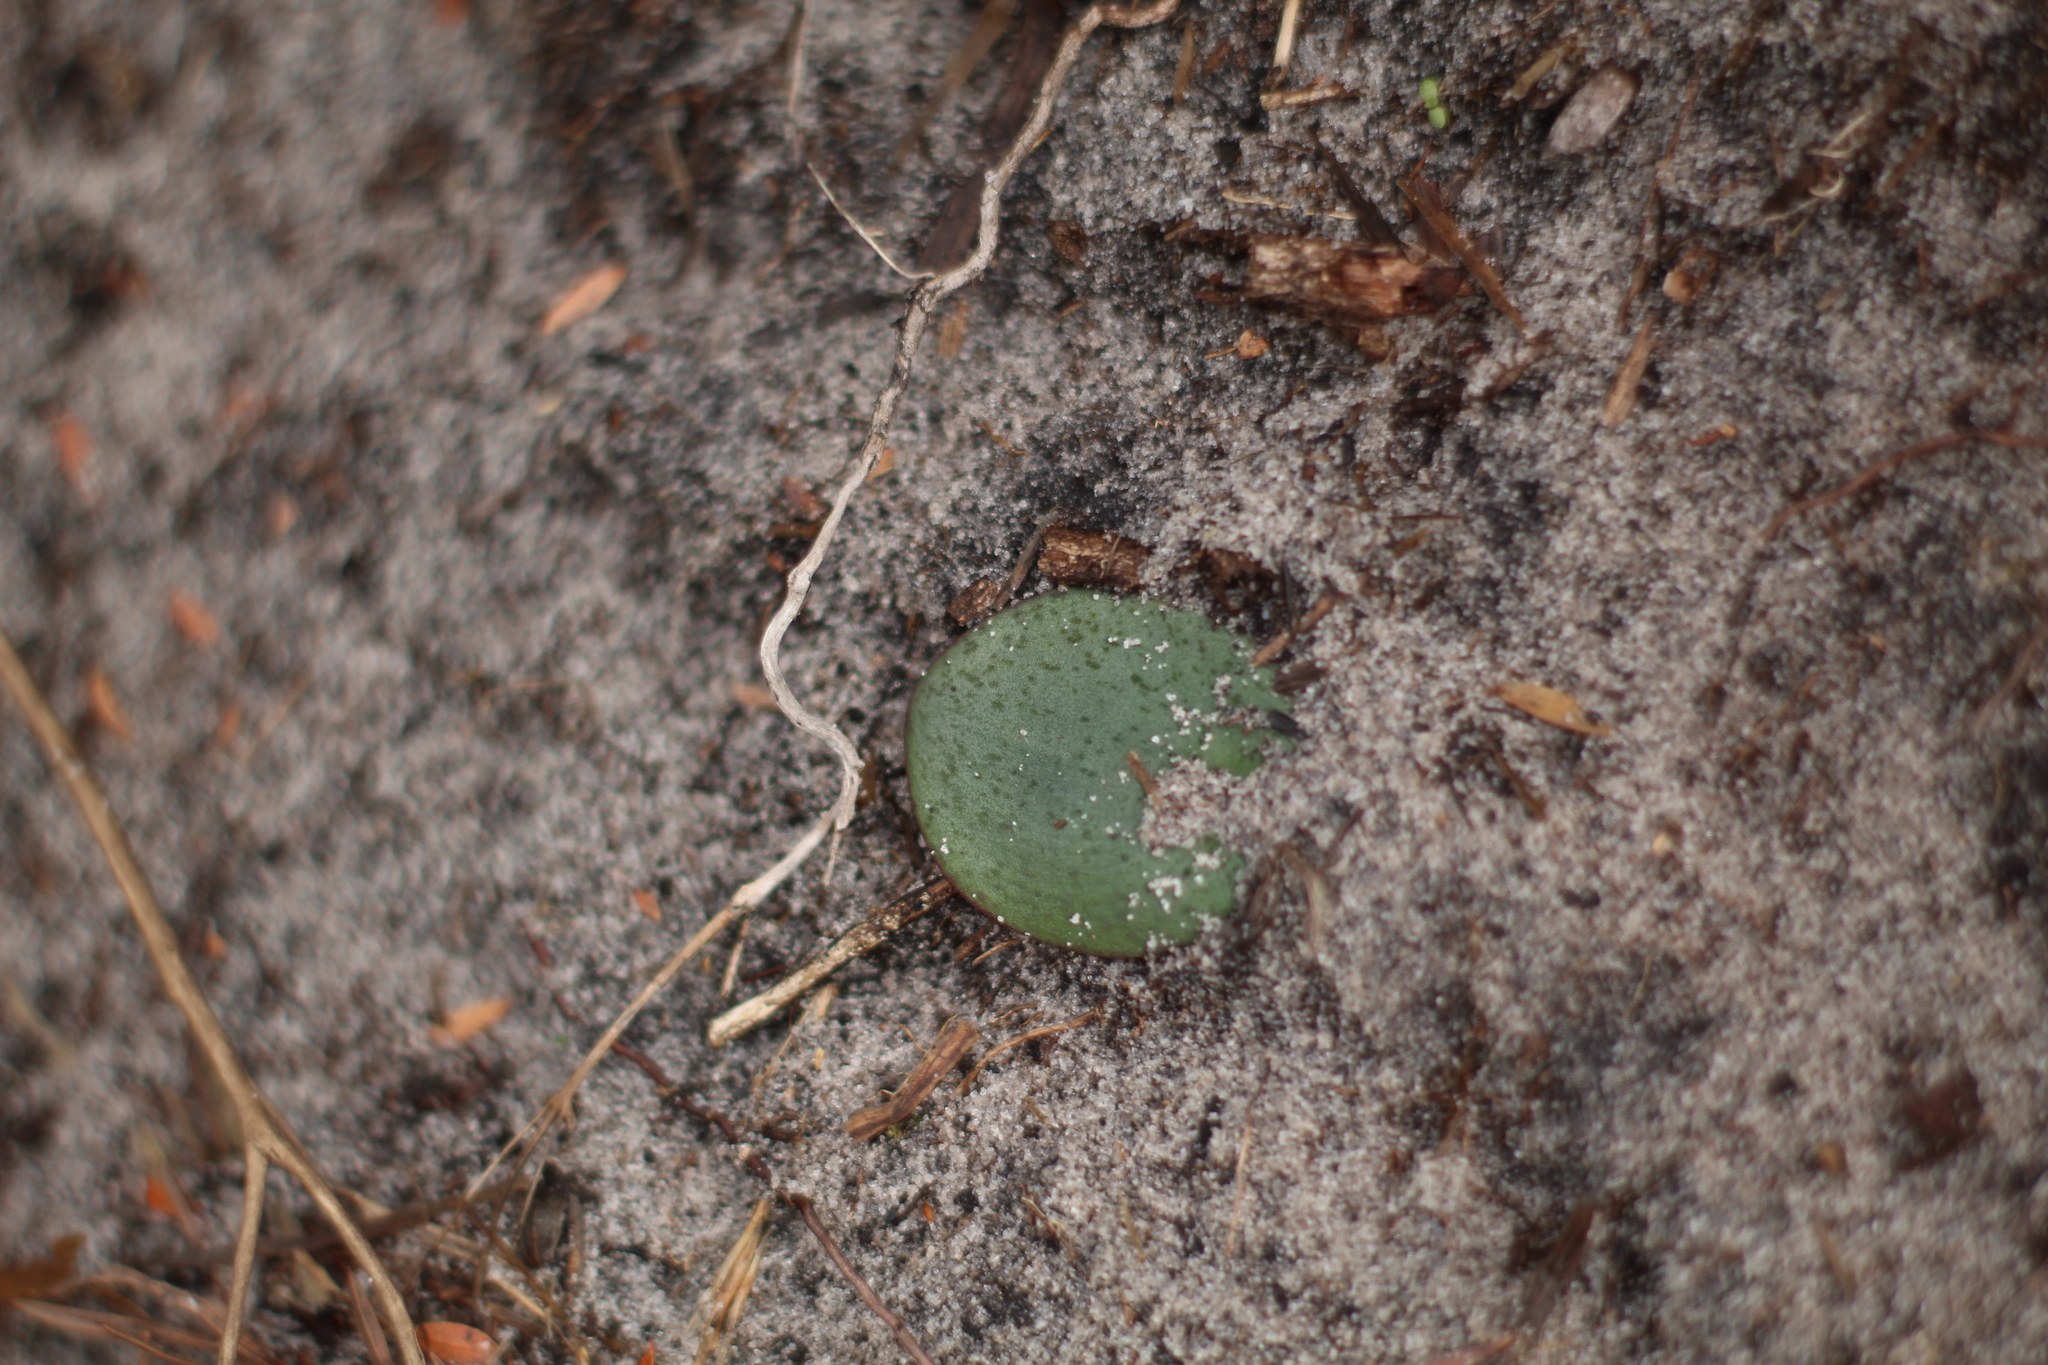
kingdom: Plantae
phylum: Tracheophyta
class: Liliopsida
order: Asparagales
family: Orchidaceae
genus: Pyrorchis
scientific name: Pyrorchis nigricans
